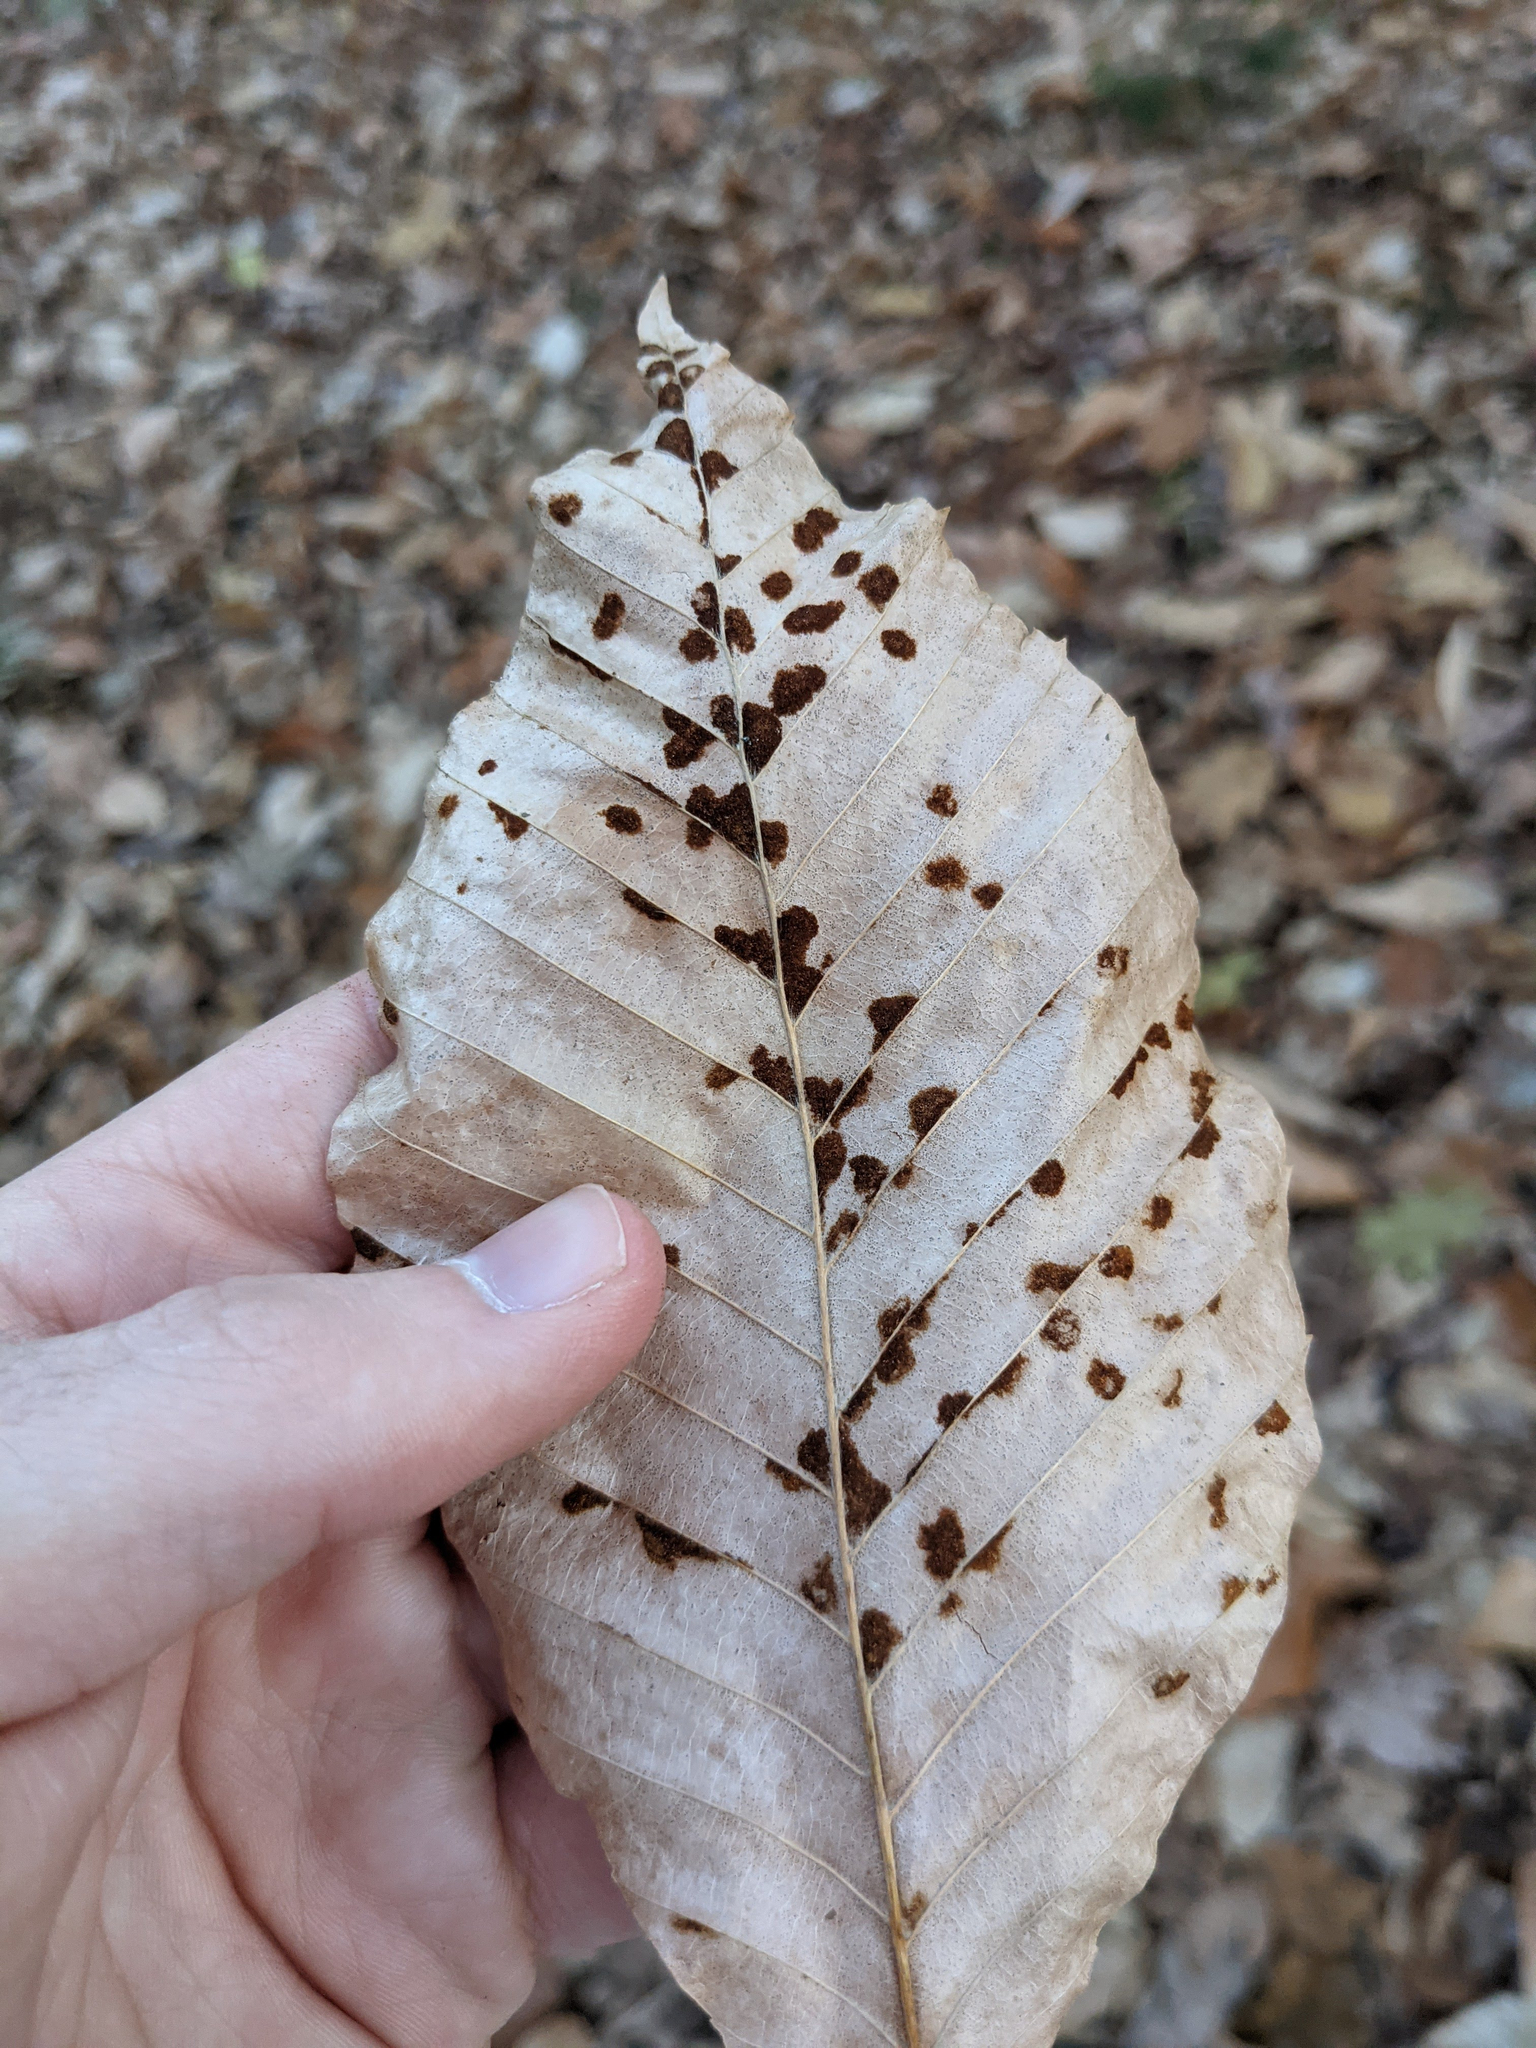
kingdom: Plantae
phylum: Tracheophyta
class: Magnoliopsida
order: Fagales
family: Fagaceae
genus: Fagus
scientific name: Fagus grandifolia
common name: American beech
